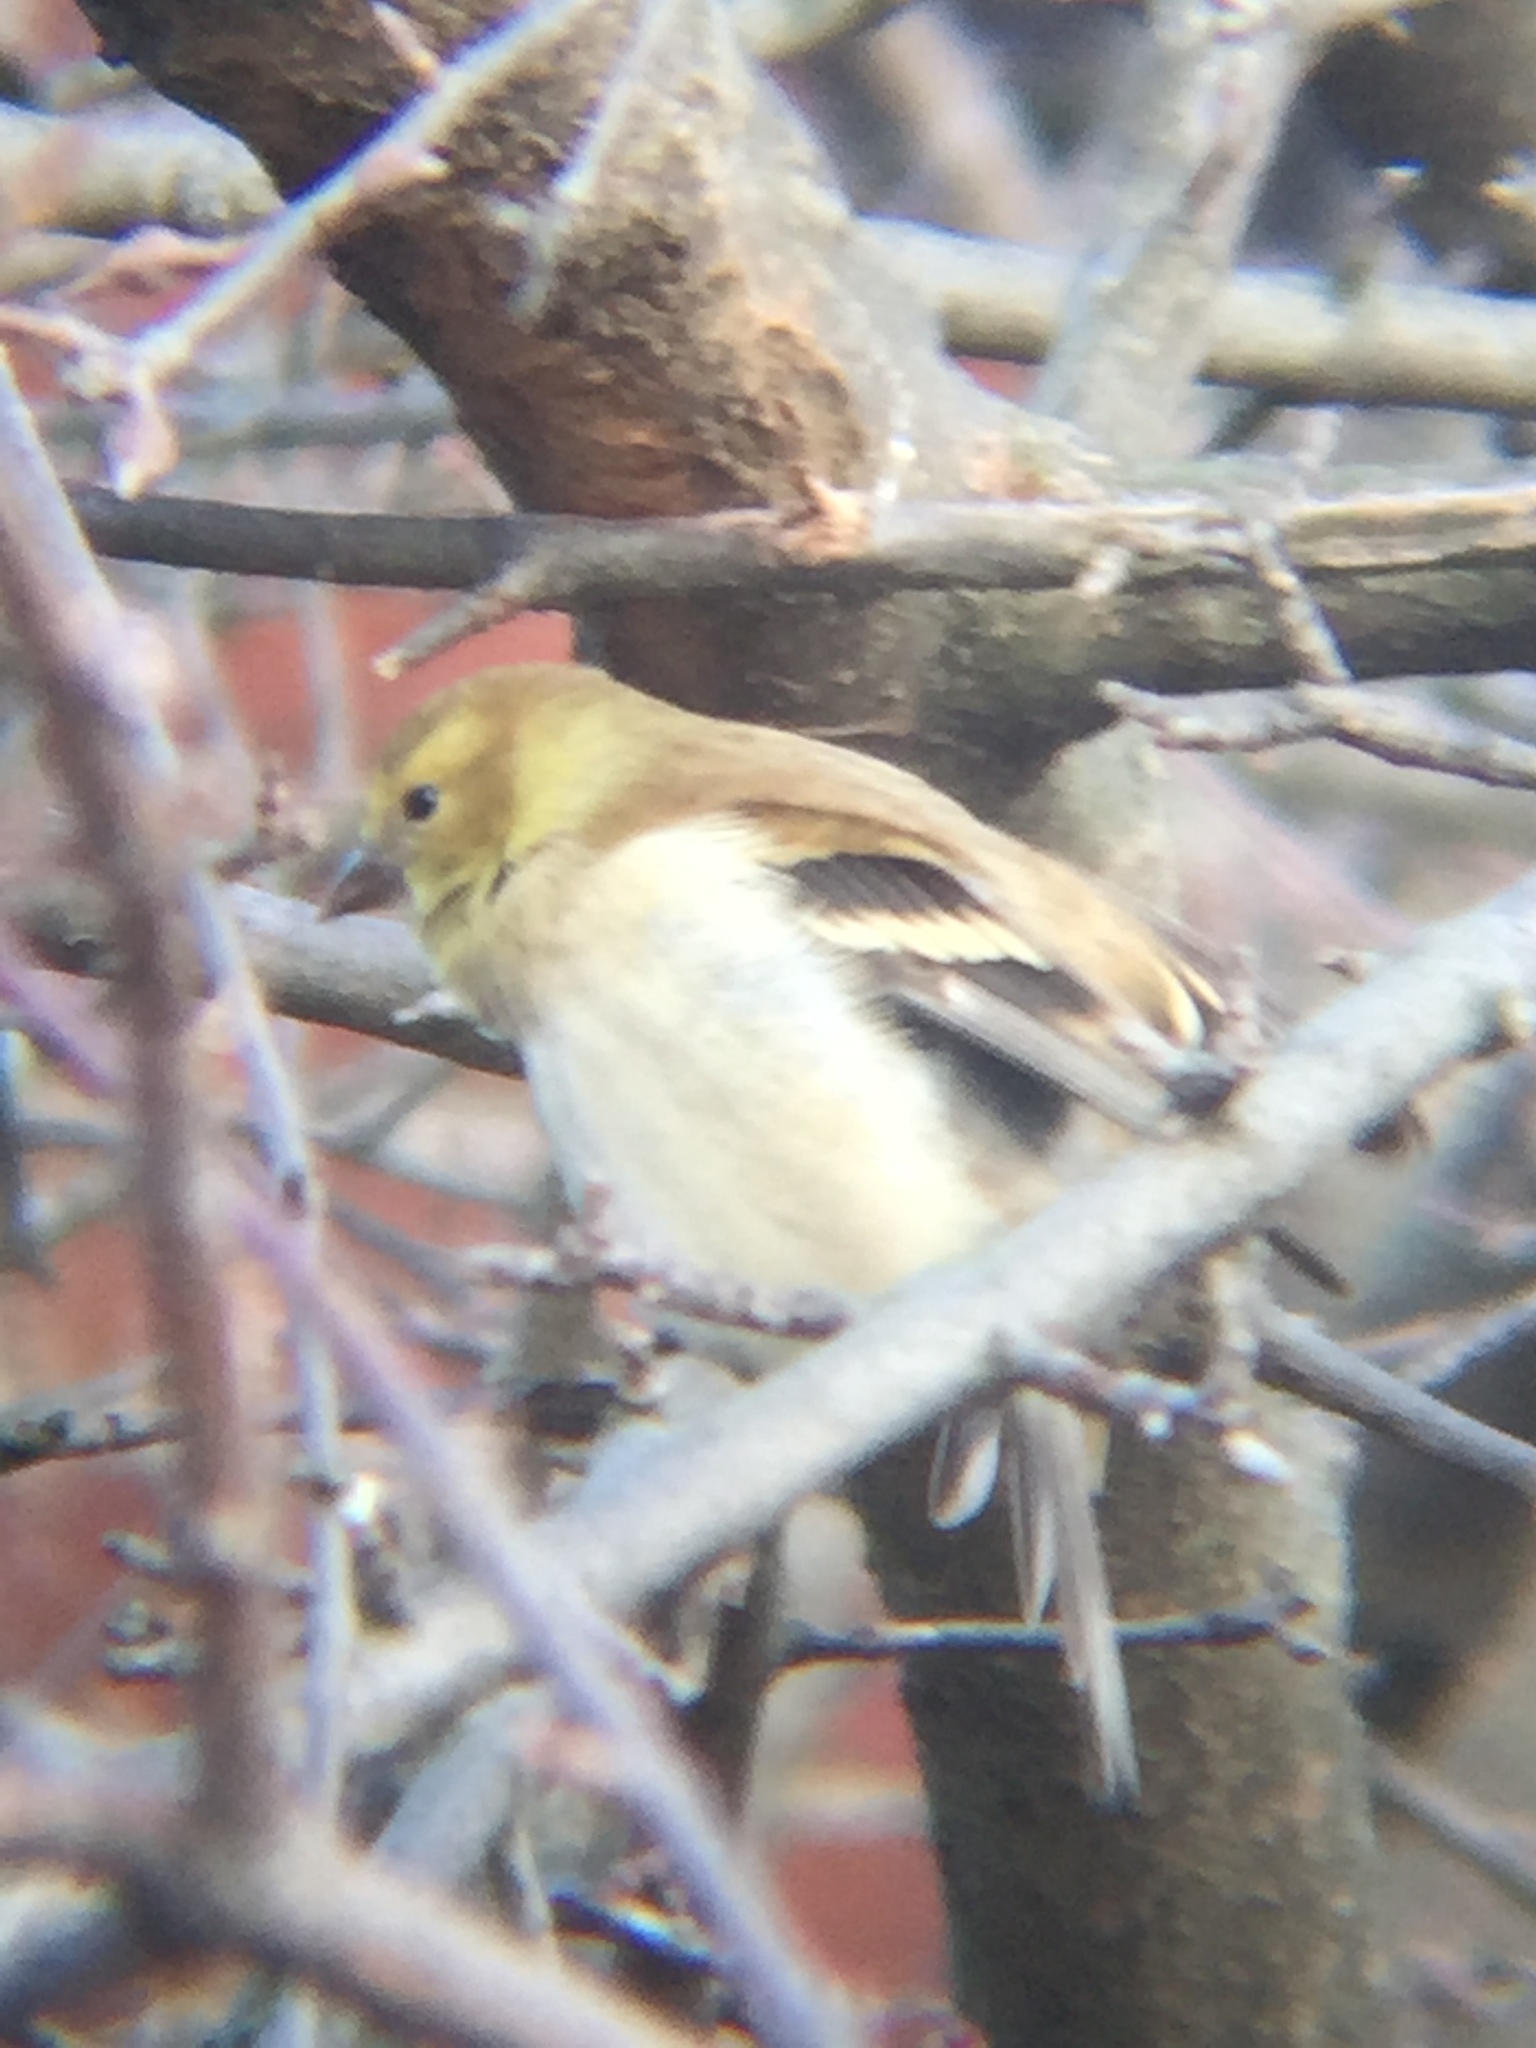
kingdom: Animalia
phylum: Chordata
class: Aves
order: Passeriformes
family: Fringillidae
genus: Spinus
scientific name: Spinus tristis
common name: American goldfinch
